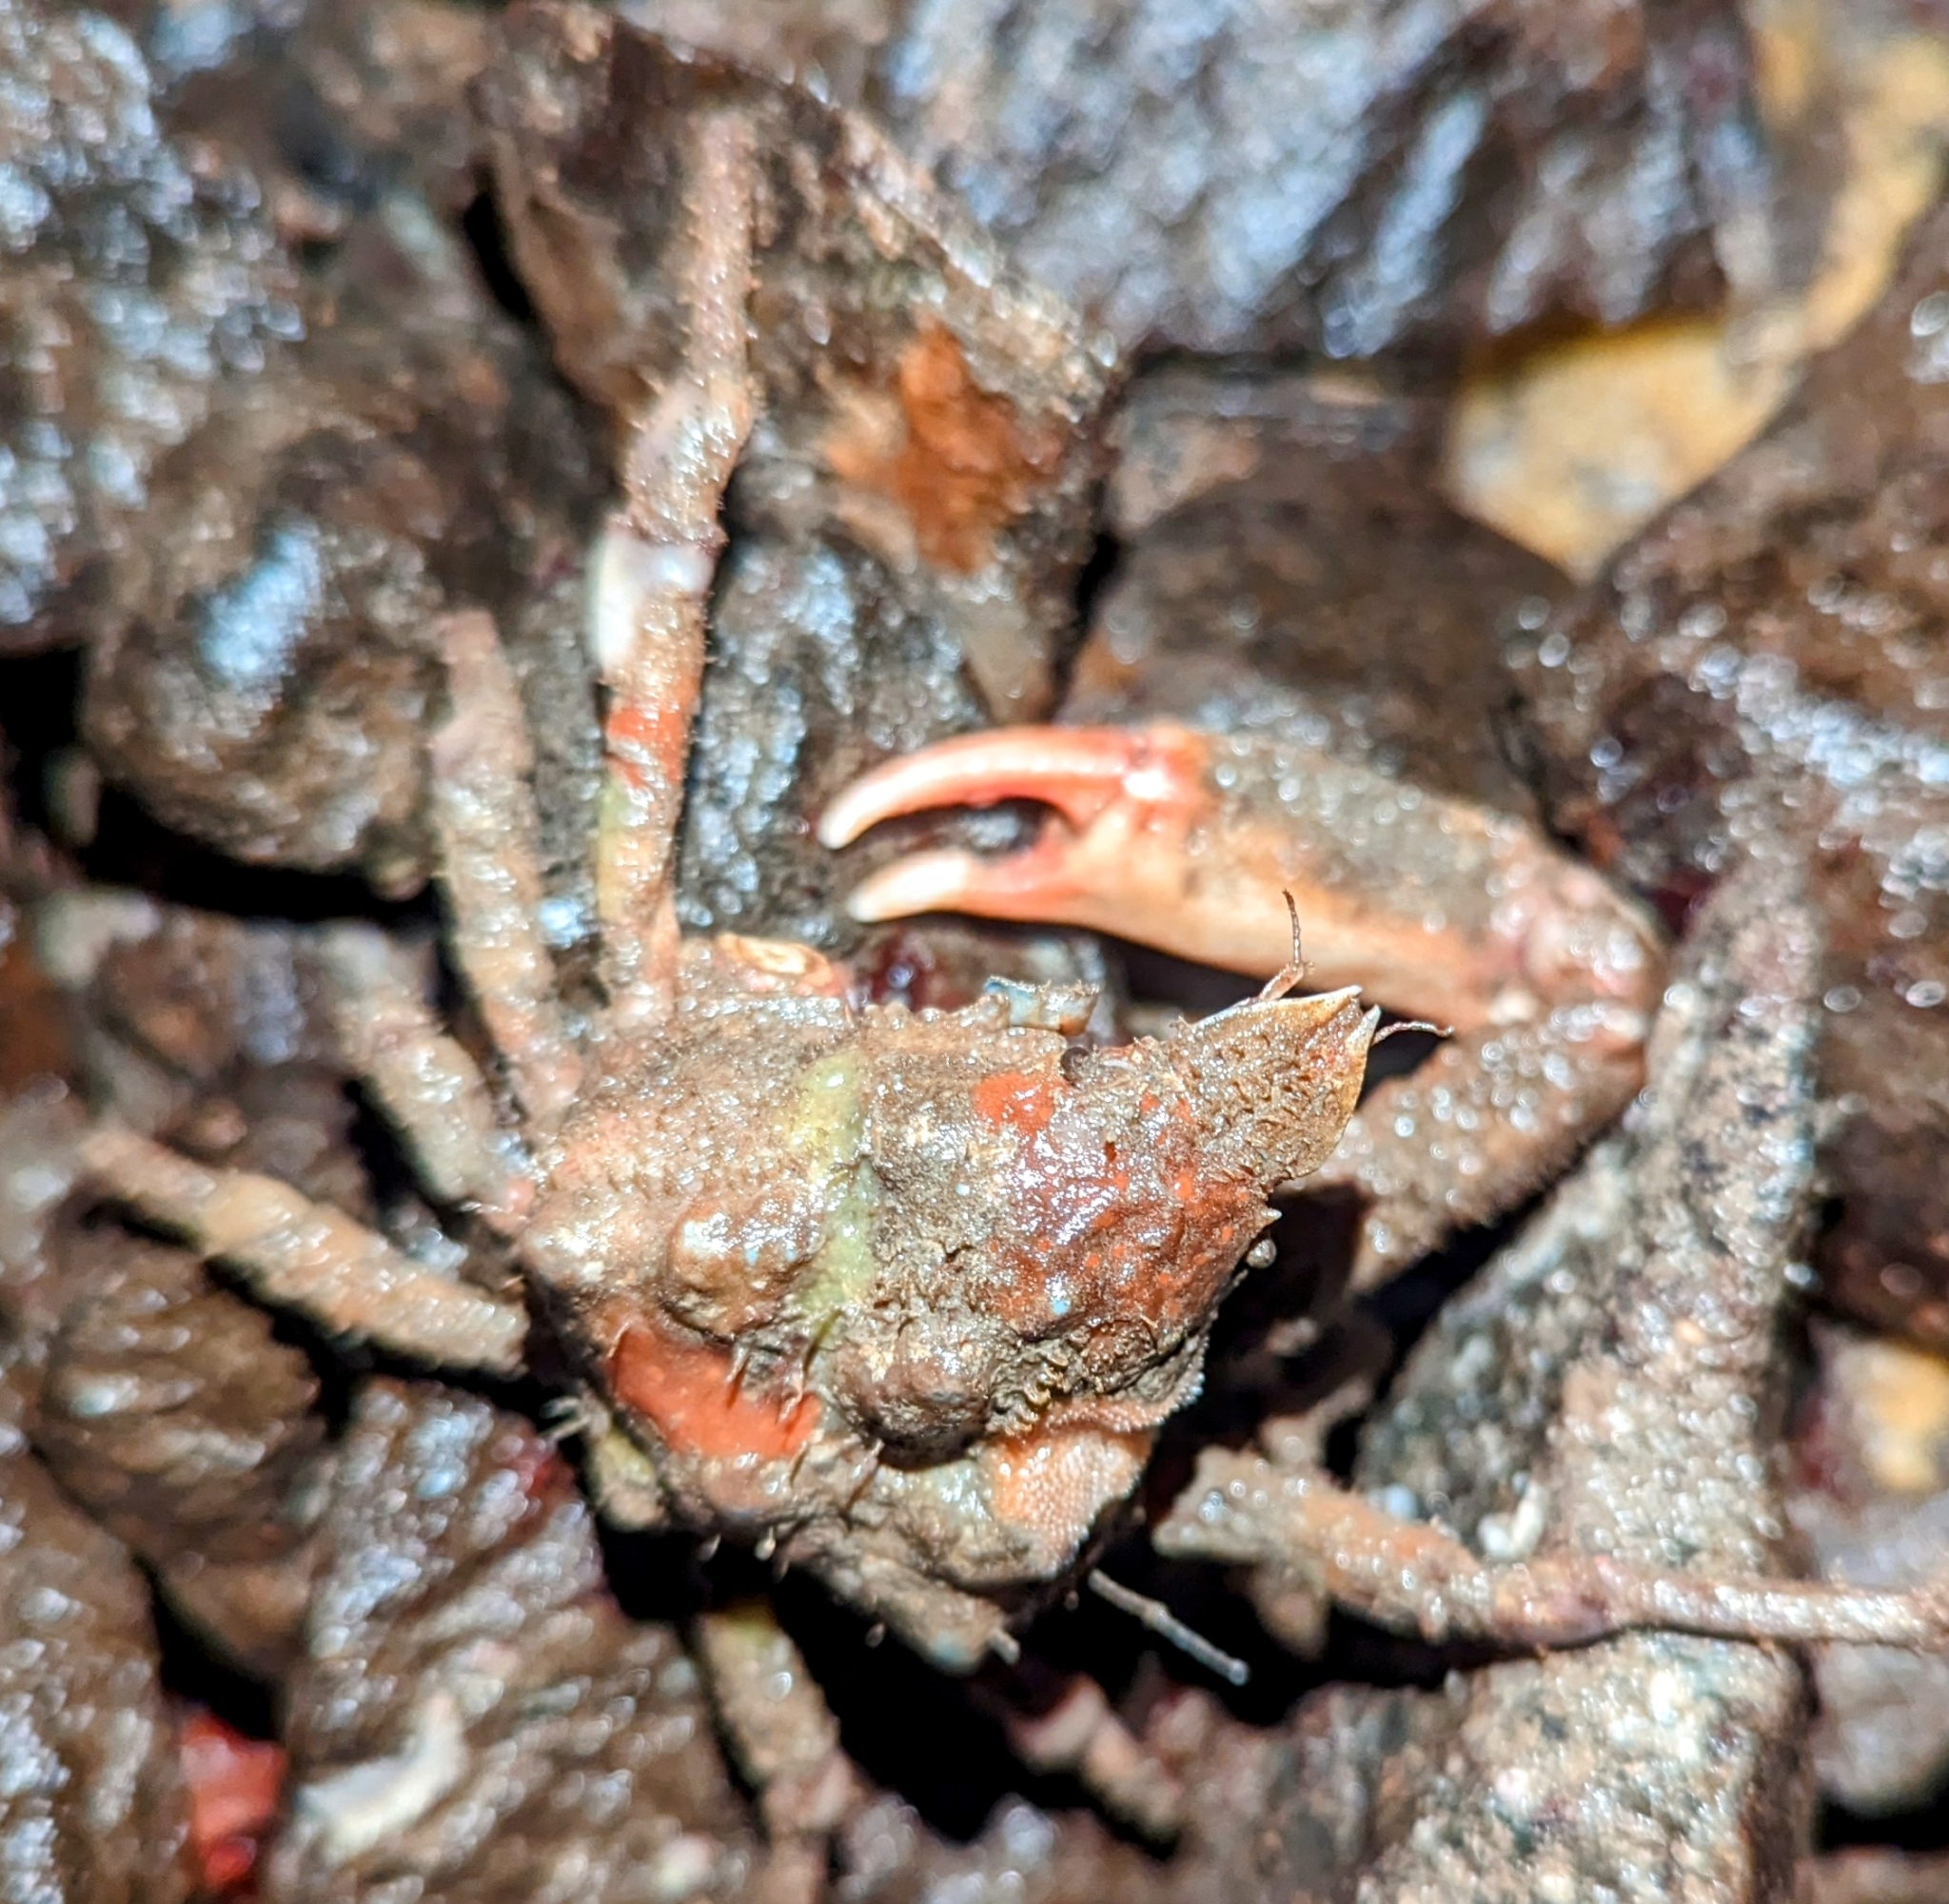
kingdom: Animalia
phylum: Arthropoda
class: Malacostraca
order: Decapoda
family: Epialtidae
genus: Scyra
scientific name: Scyra acutifrons
